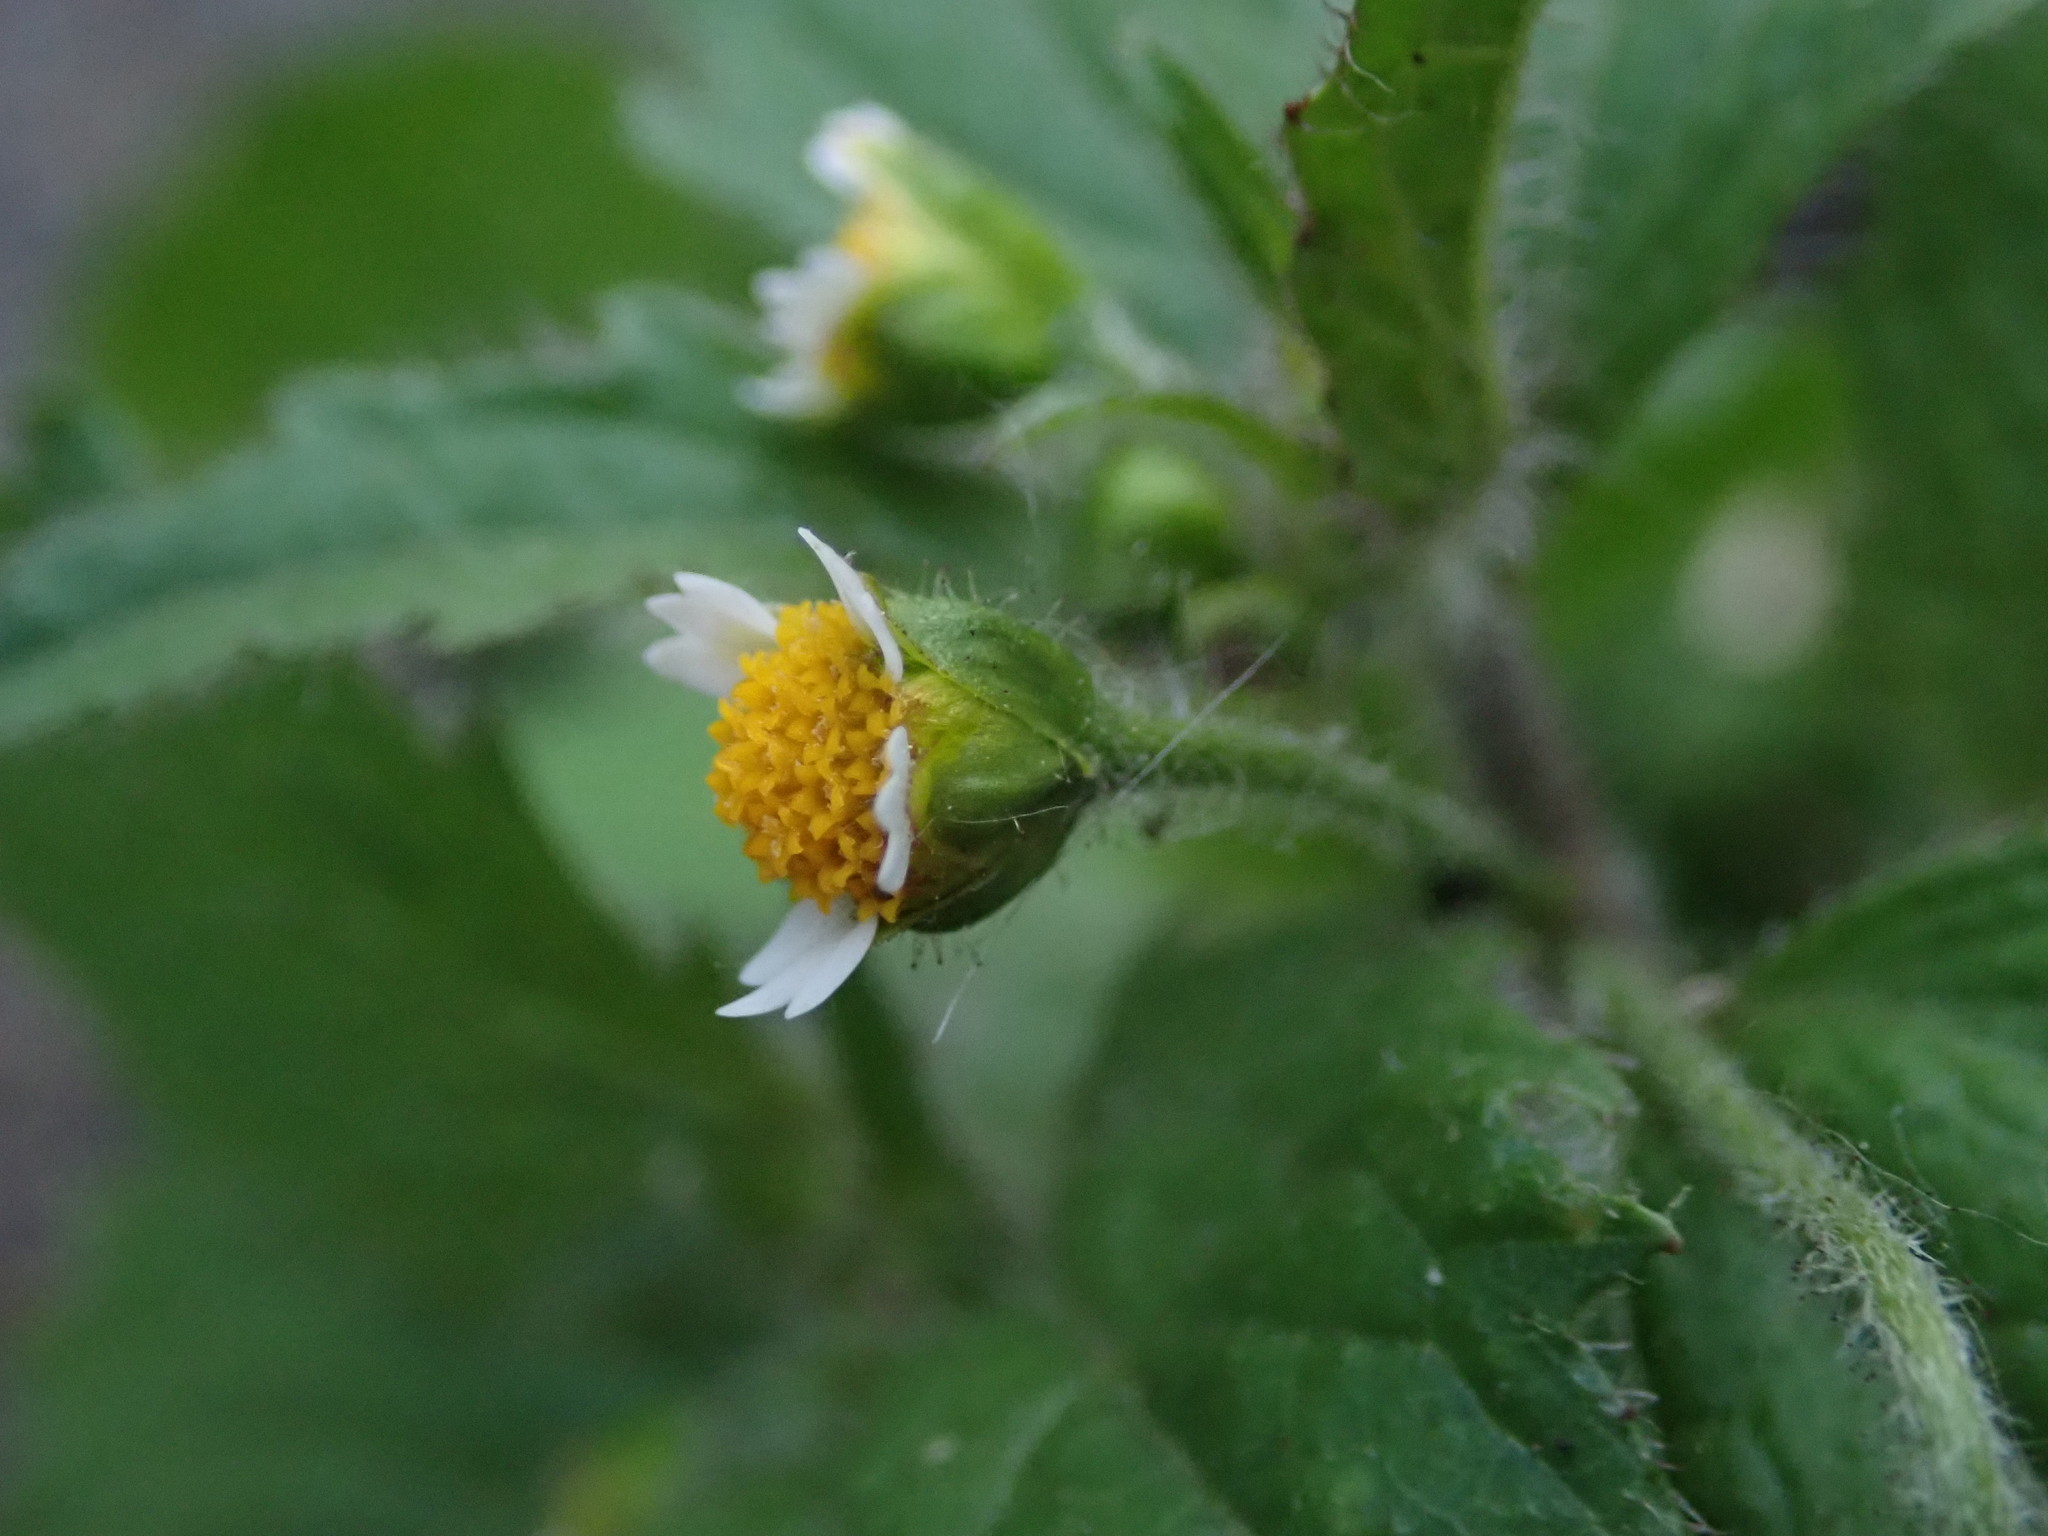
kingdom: Plantae
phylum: Tracheophyta
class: Magnoliopsida
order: Asterales
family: Asteraceae
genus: Galinsoga
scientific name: Galinsoga quadriradiata
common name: Shaggy soldier
